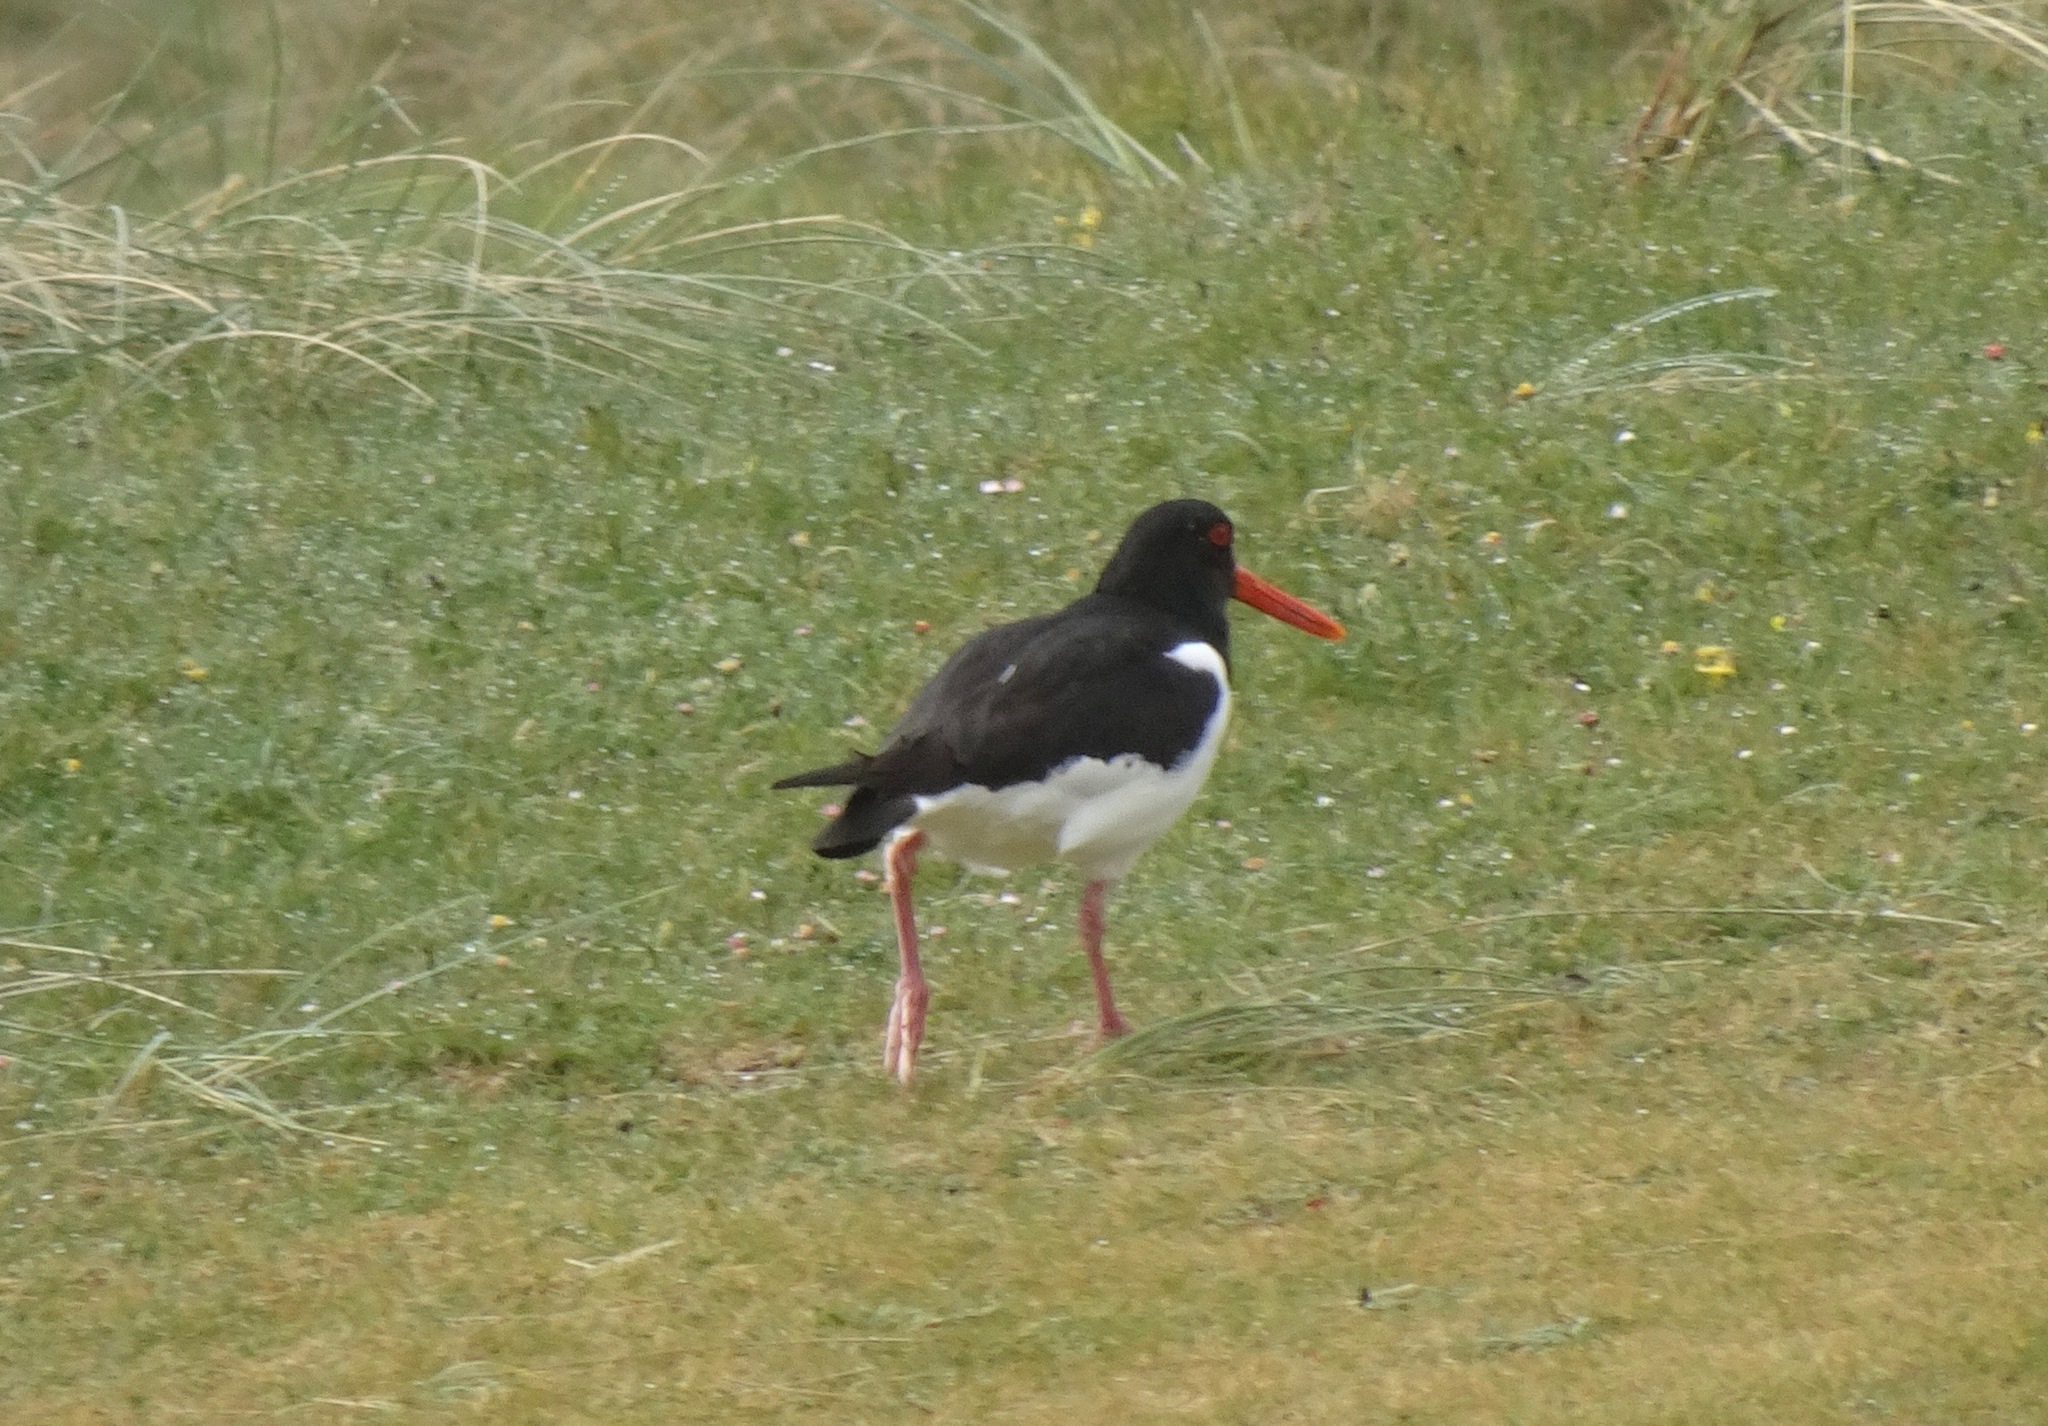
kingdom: Animalia
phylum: Chordata
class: Aves
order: Charadriiformes
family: Haematopodidae
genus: Haematopus
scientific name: Haematopus ostralegus
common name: Eurasian oystercatcher
